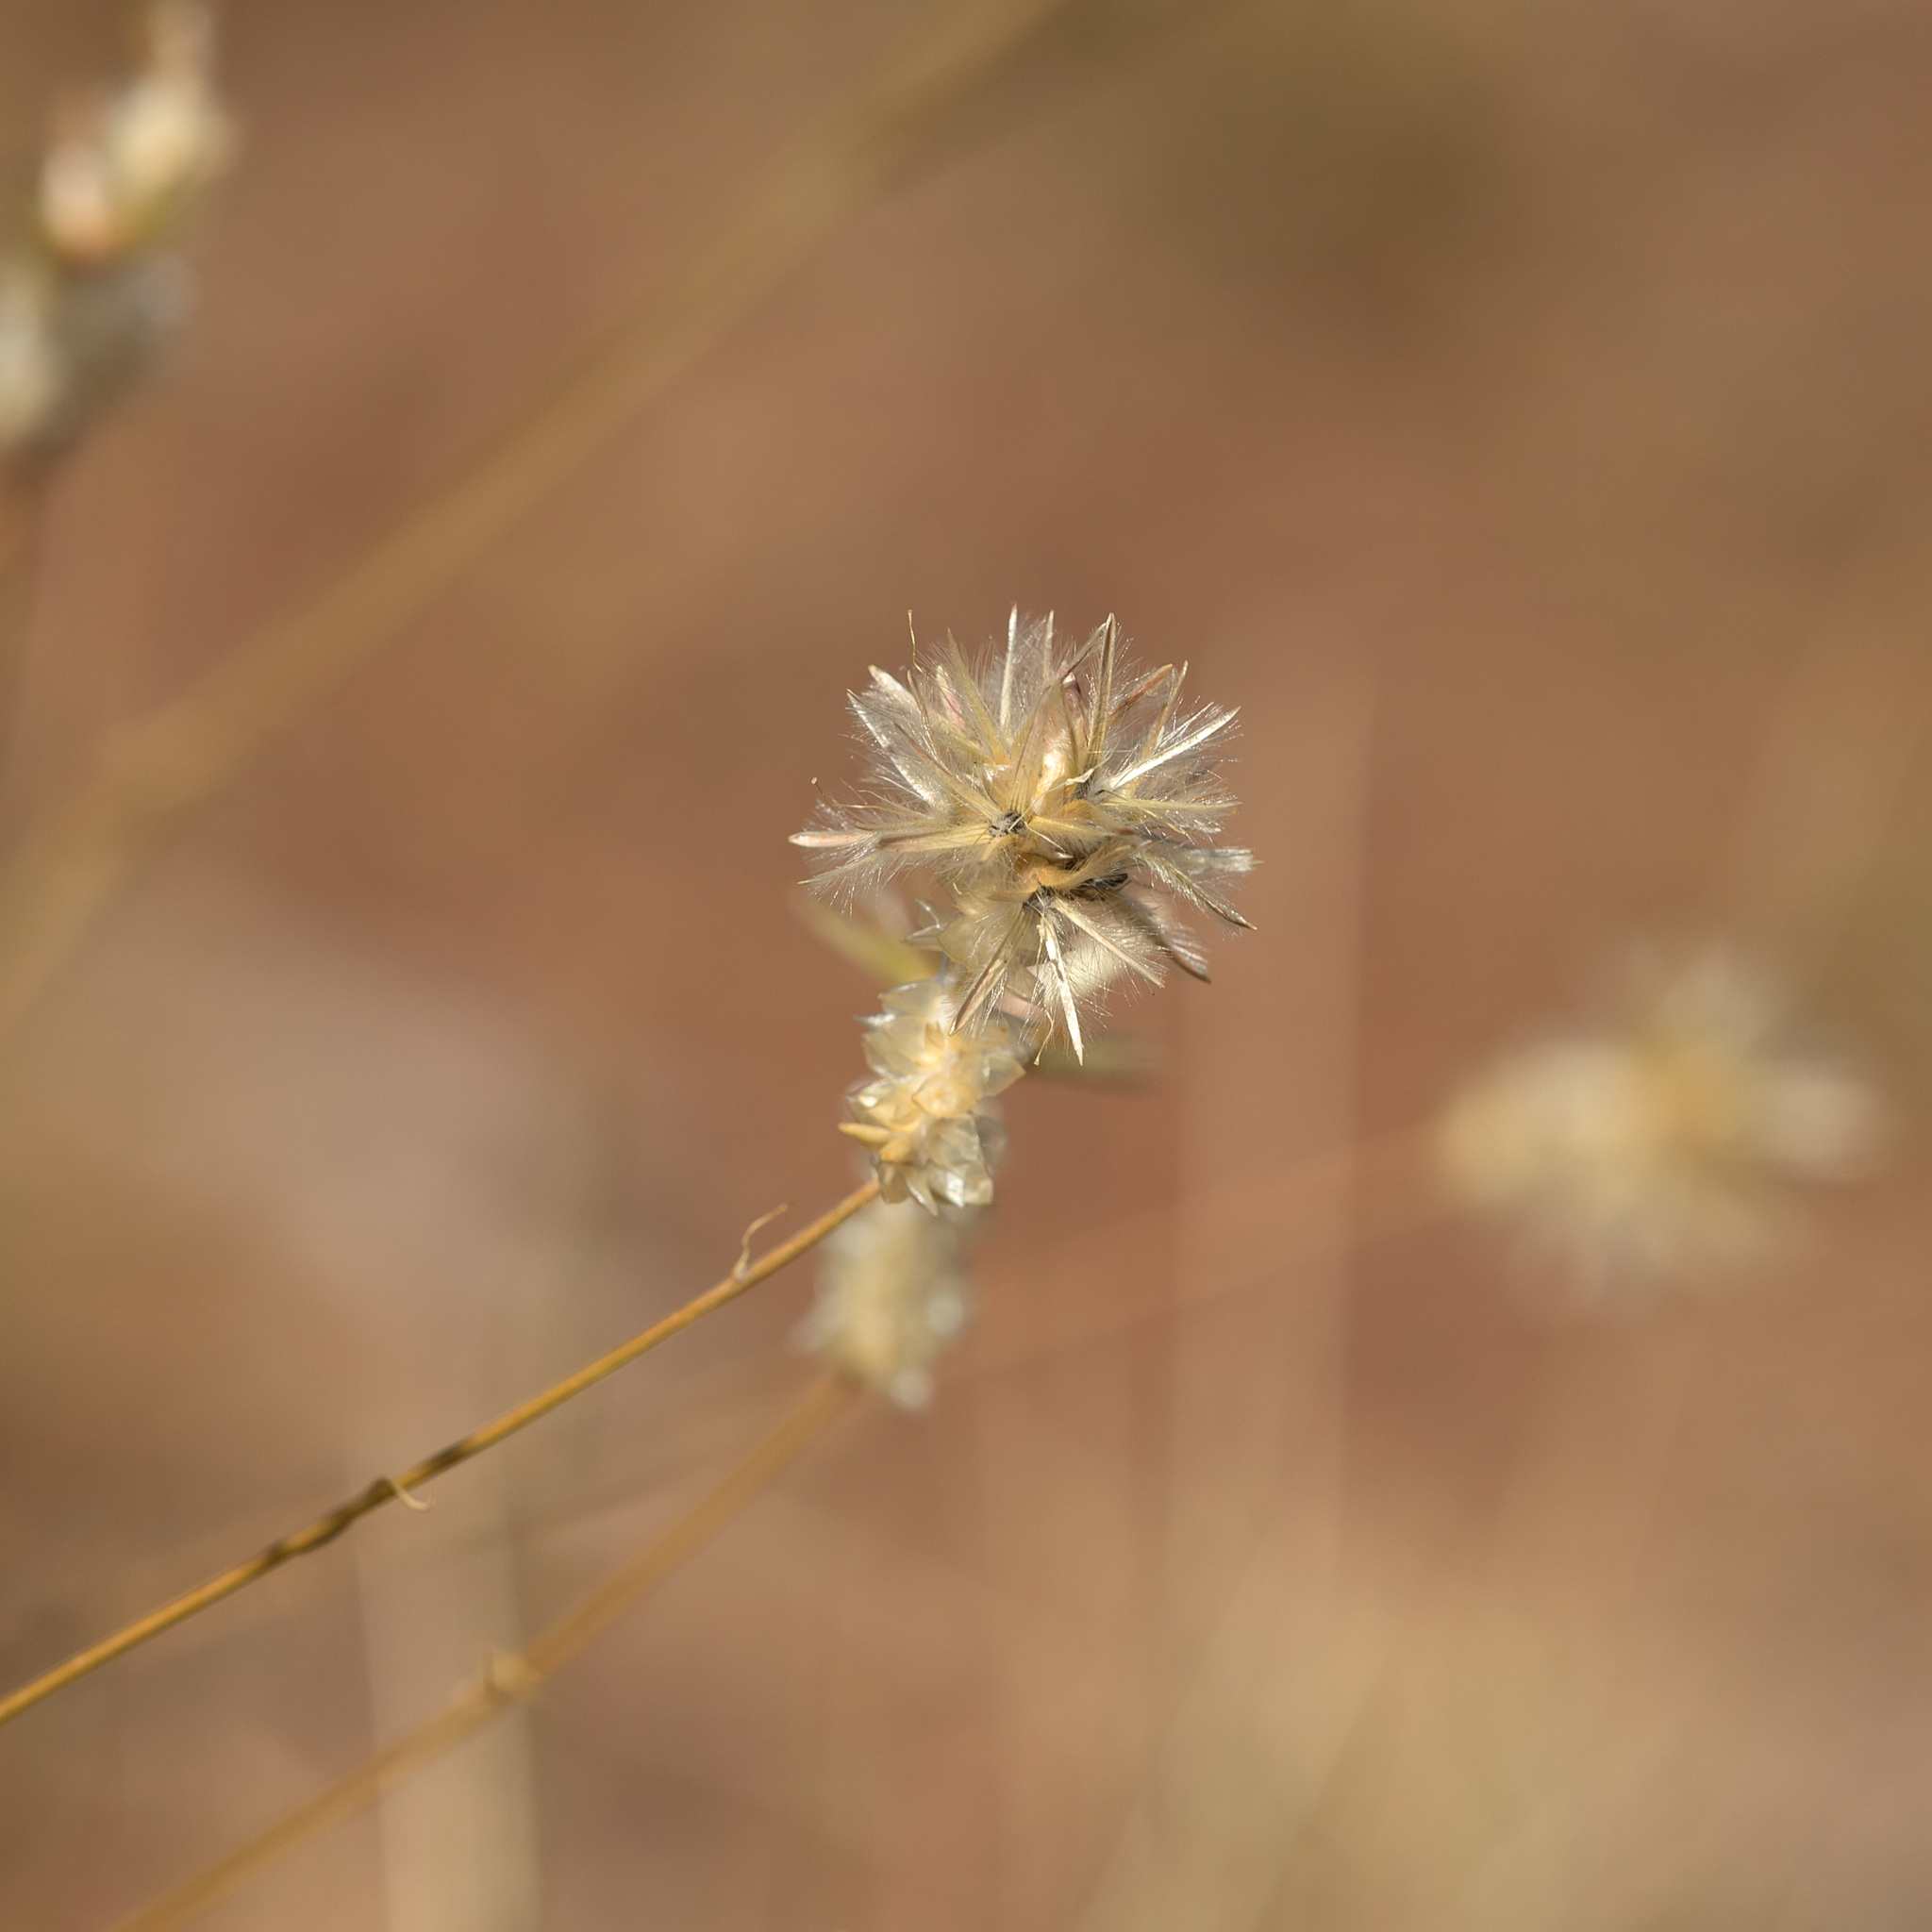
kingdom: Plantae
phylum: Tracheophyta
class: Magnoliopsida
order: Caryophyllales
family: Amaranthaceae
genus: Ptilotus
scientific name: Ptilotus fusiformis
